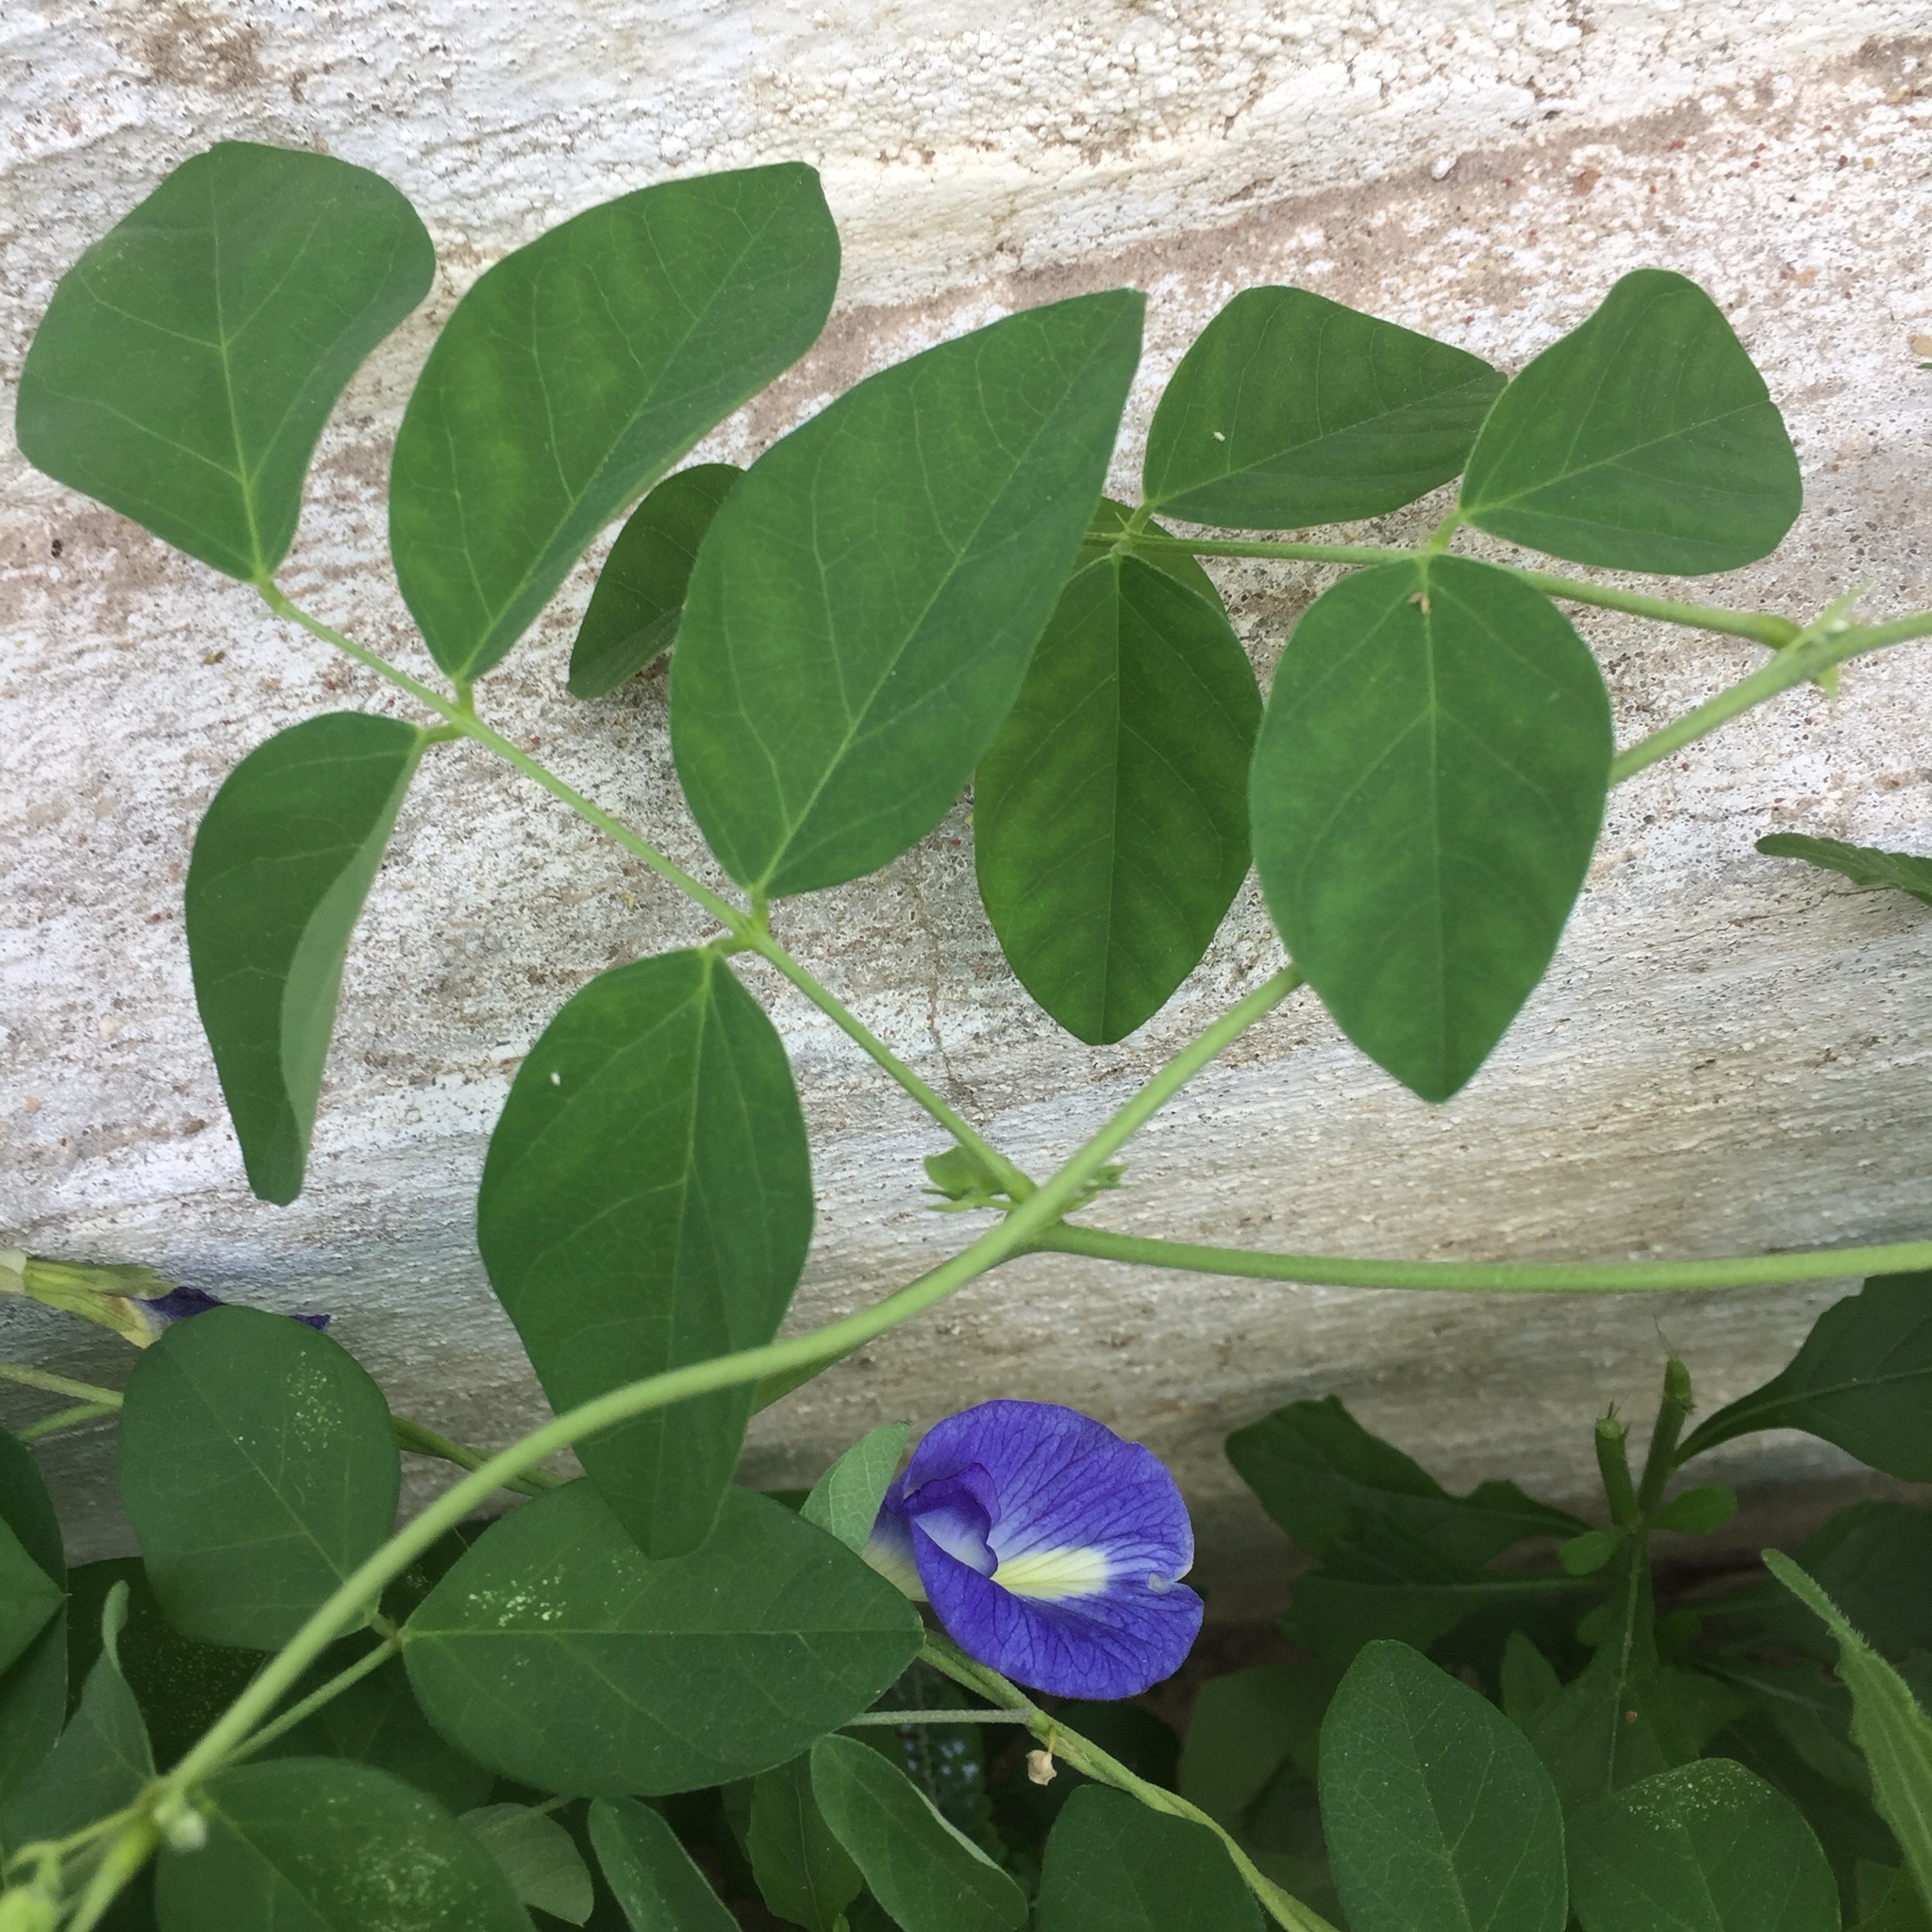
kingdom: Plantae
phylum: Tracheophyta
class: Magnoliopsida
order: Fabales
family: Fabaceae
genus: Clitoria
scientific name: Clitoria ternatea
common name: Asian pigeonwings
